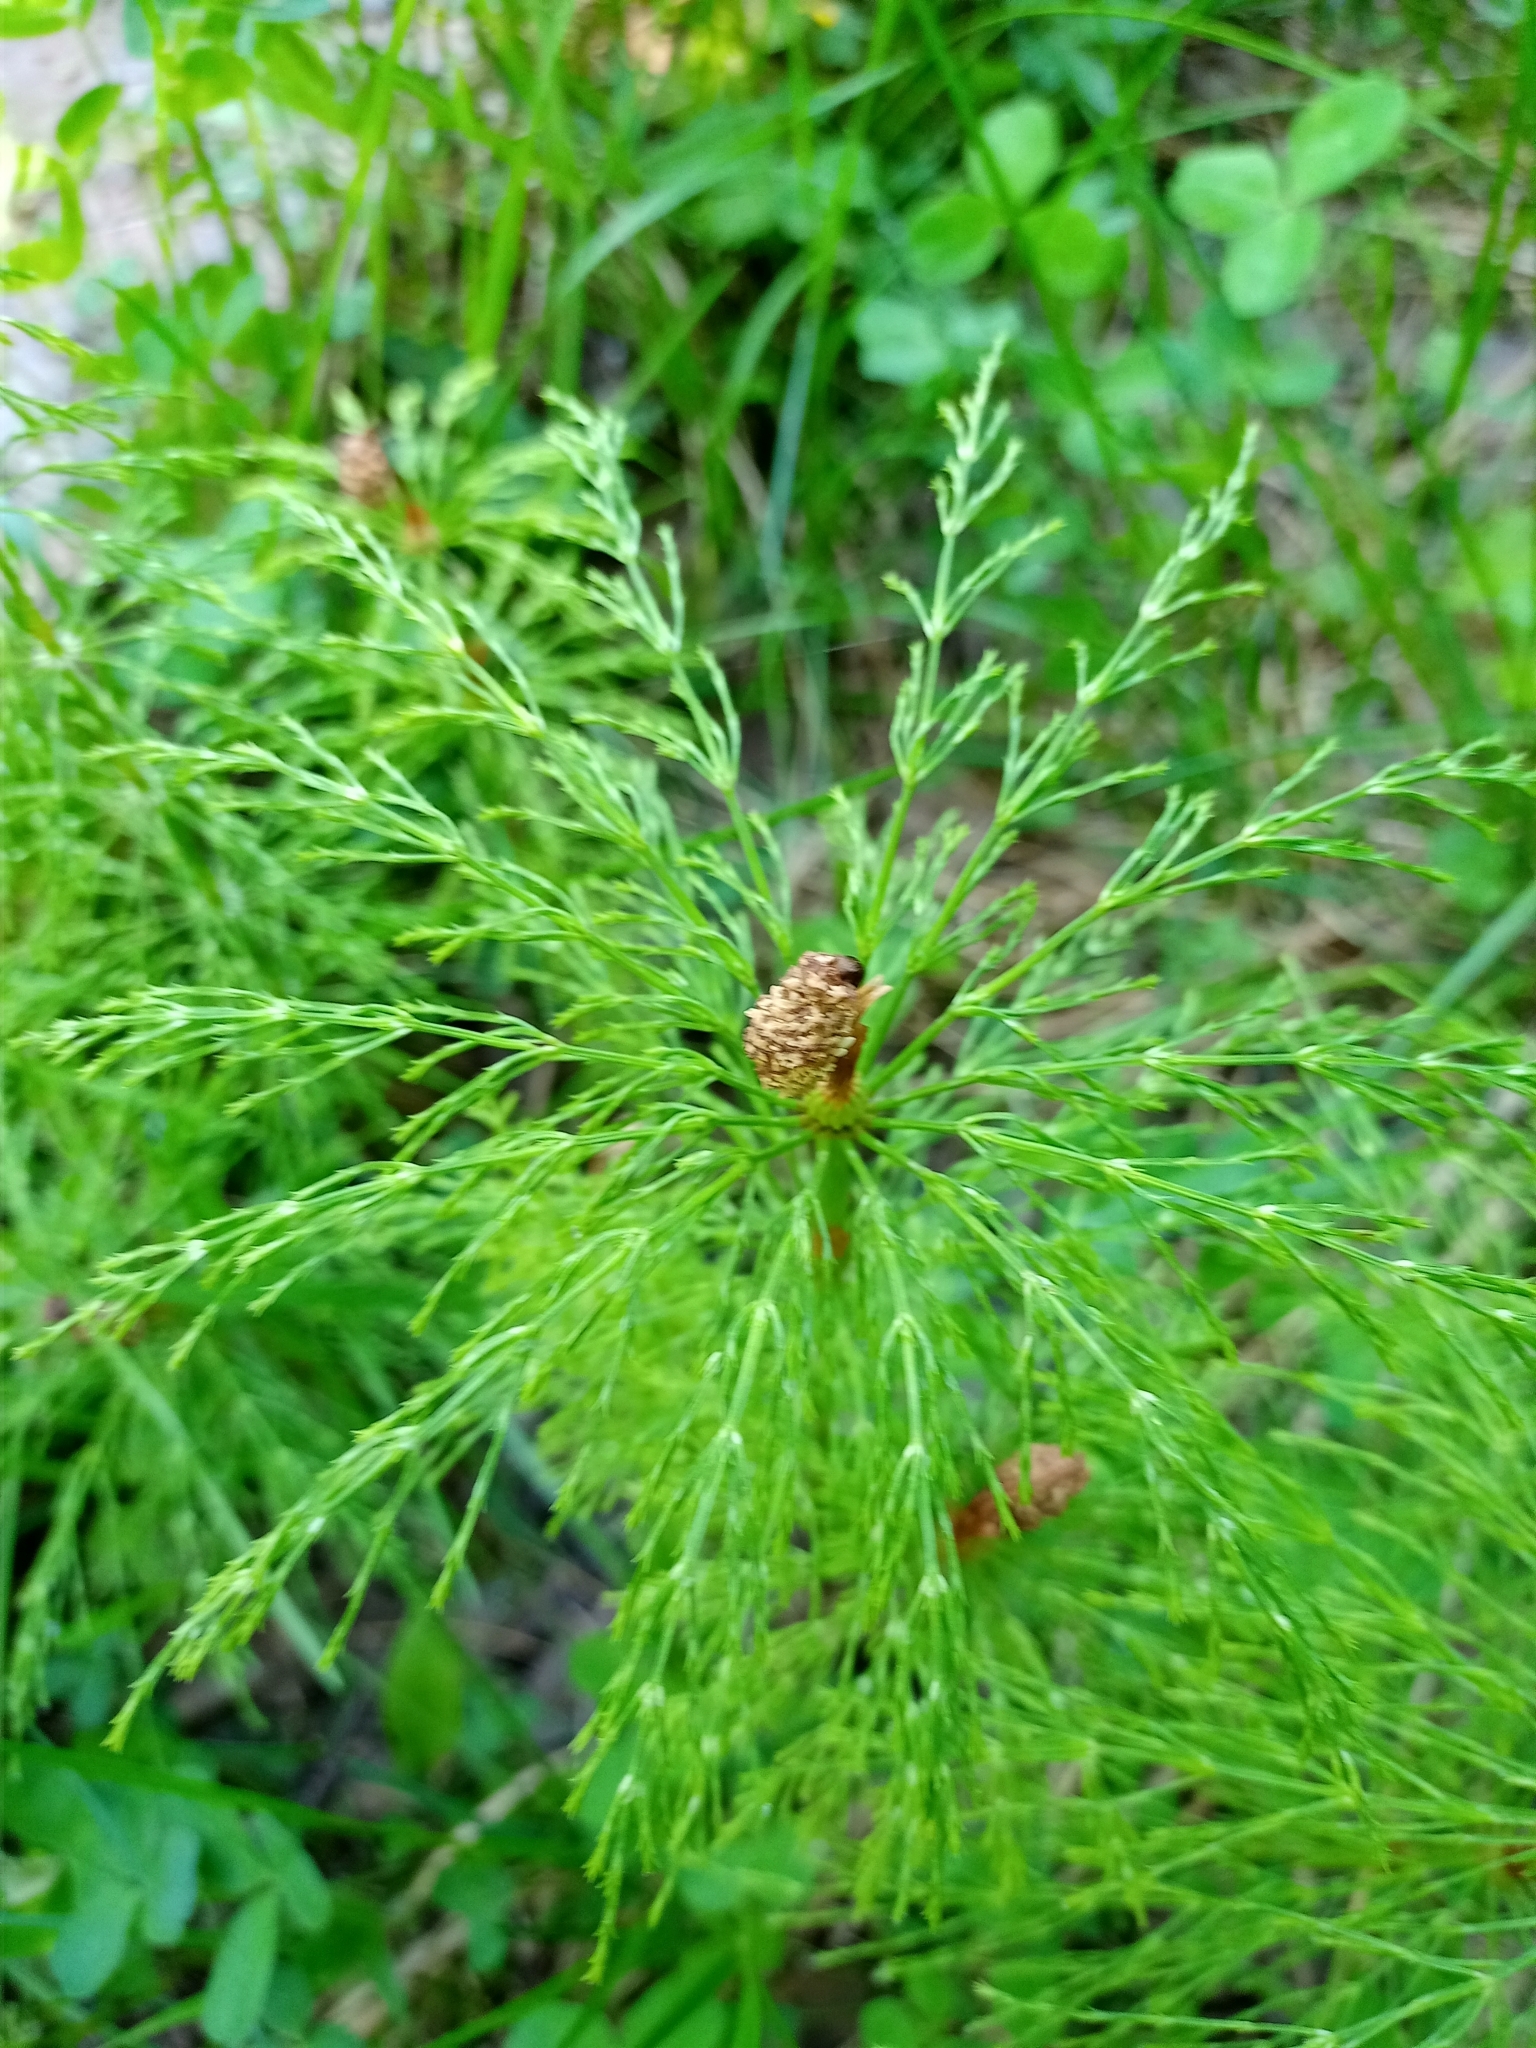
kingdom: Plantae
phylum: Tracheophyta
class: Polypodiopsida
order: Equisetales
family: Equisetaceae
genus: Equisetum
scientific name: Equisetum sylvaticum
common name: Wood horsetail
